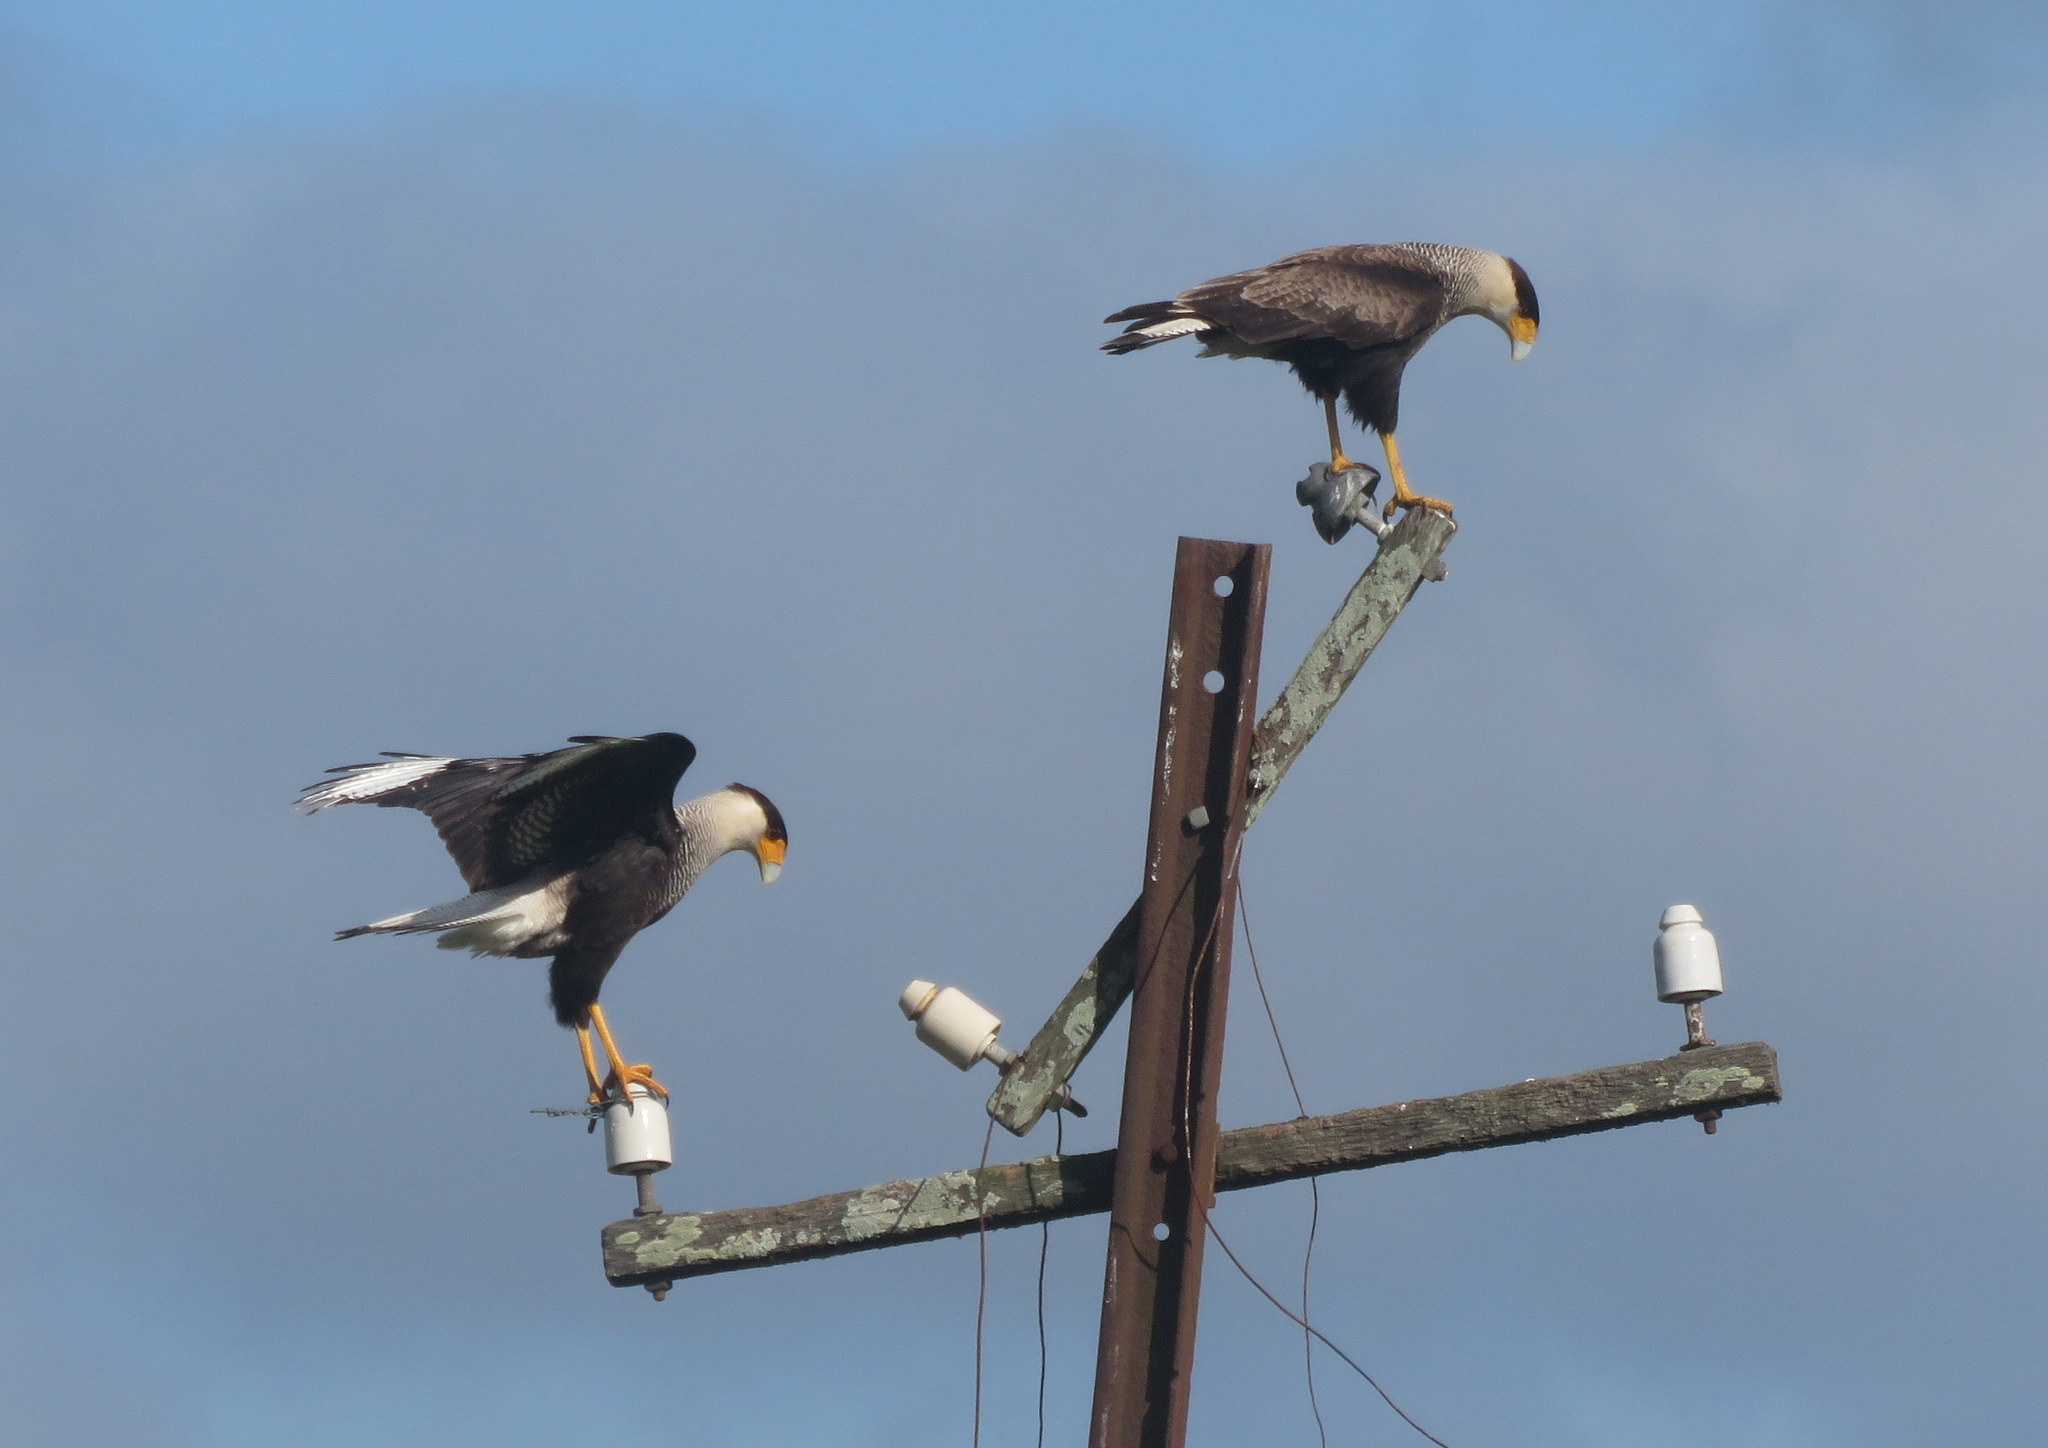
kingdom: Animalia
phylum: Chordata
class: Aves
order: Falconiformes
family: Falconidae
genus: Caracara
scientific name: Caracara plancus
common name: Southern caracara
